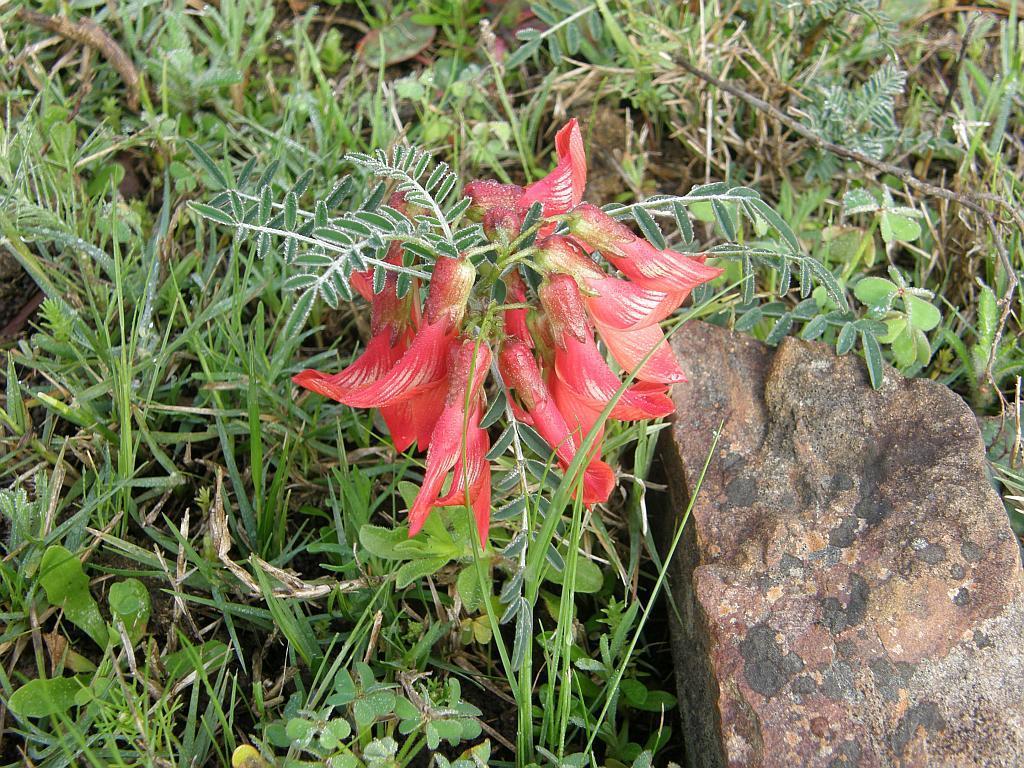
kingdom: Plantae
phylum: Tracheophyta
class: Magnoliopsida
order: Fabales
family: Fabaceae
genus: Lessertia
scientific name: Lessertia frutescens
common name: Balloon-pea
